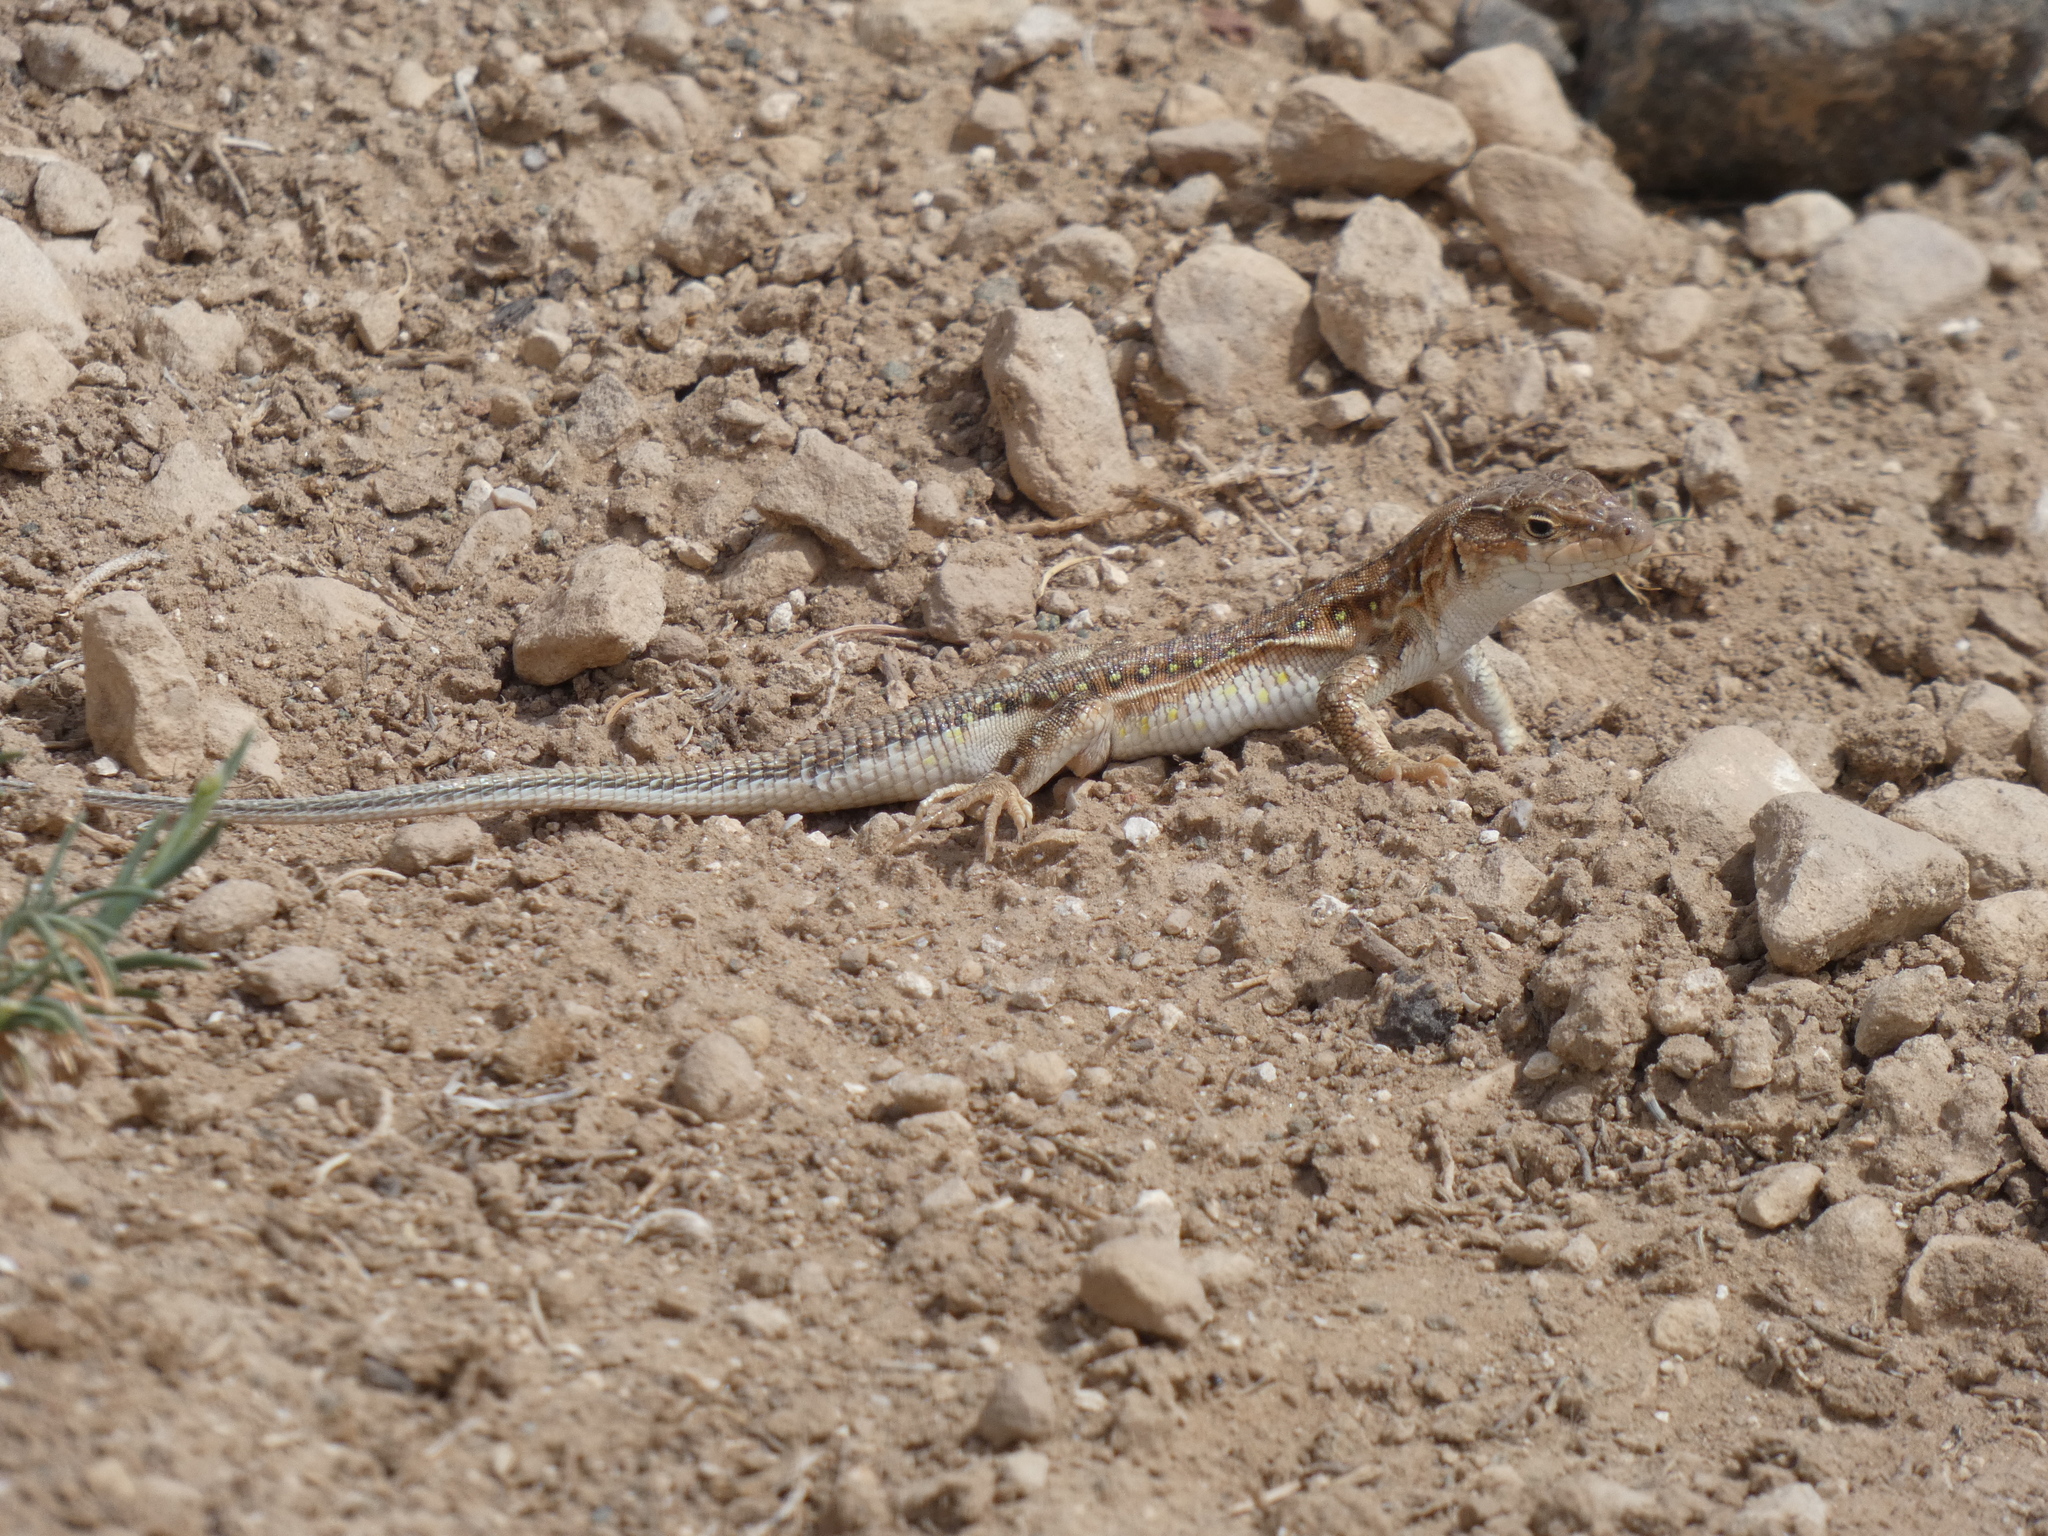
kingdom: Animalia
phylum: Chordata
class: Squamata
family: Lacertidae
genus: Acanthodactylus
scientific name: Acanthodactylus erythrurus
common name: Spiny-footed lizard
